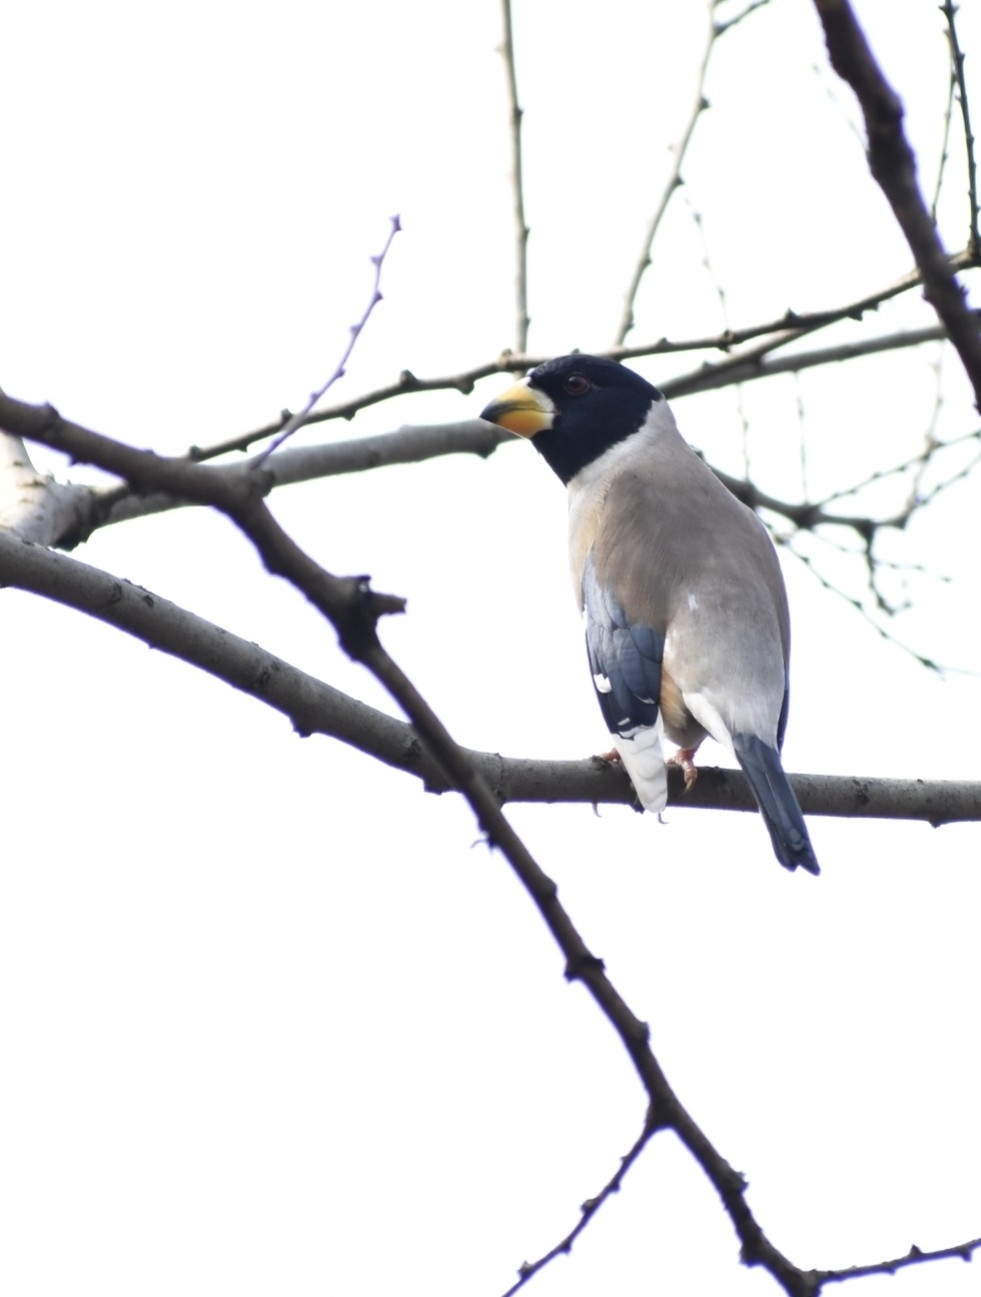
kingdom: Animalia
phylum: Chordata
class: Aves
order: Passeriformes
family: Fringillidae
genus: Eophona
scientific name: Eophona migratoria
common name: Yellow-billed grosbeak
